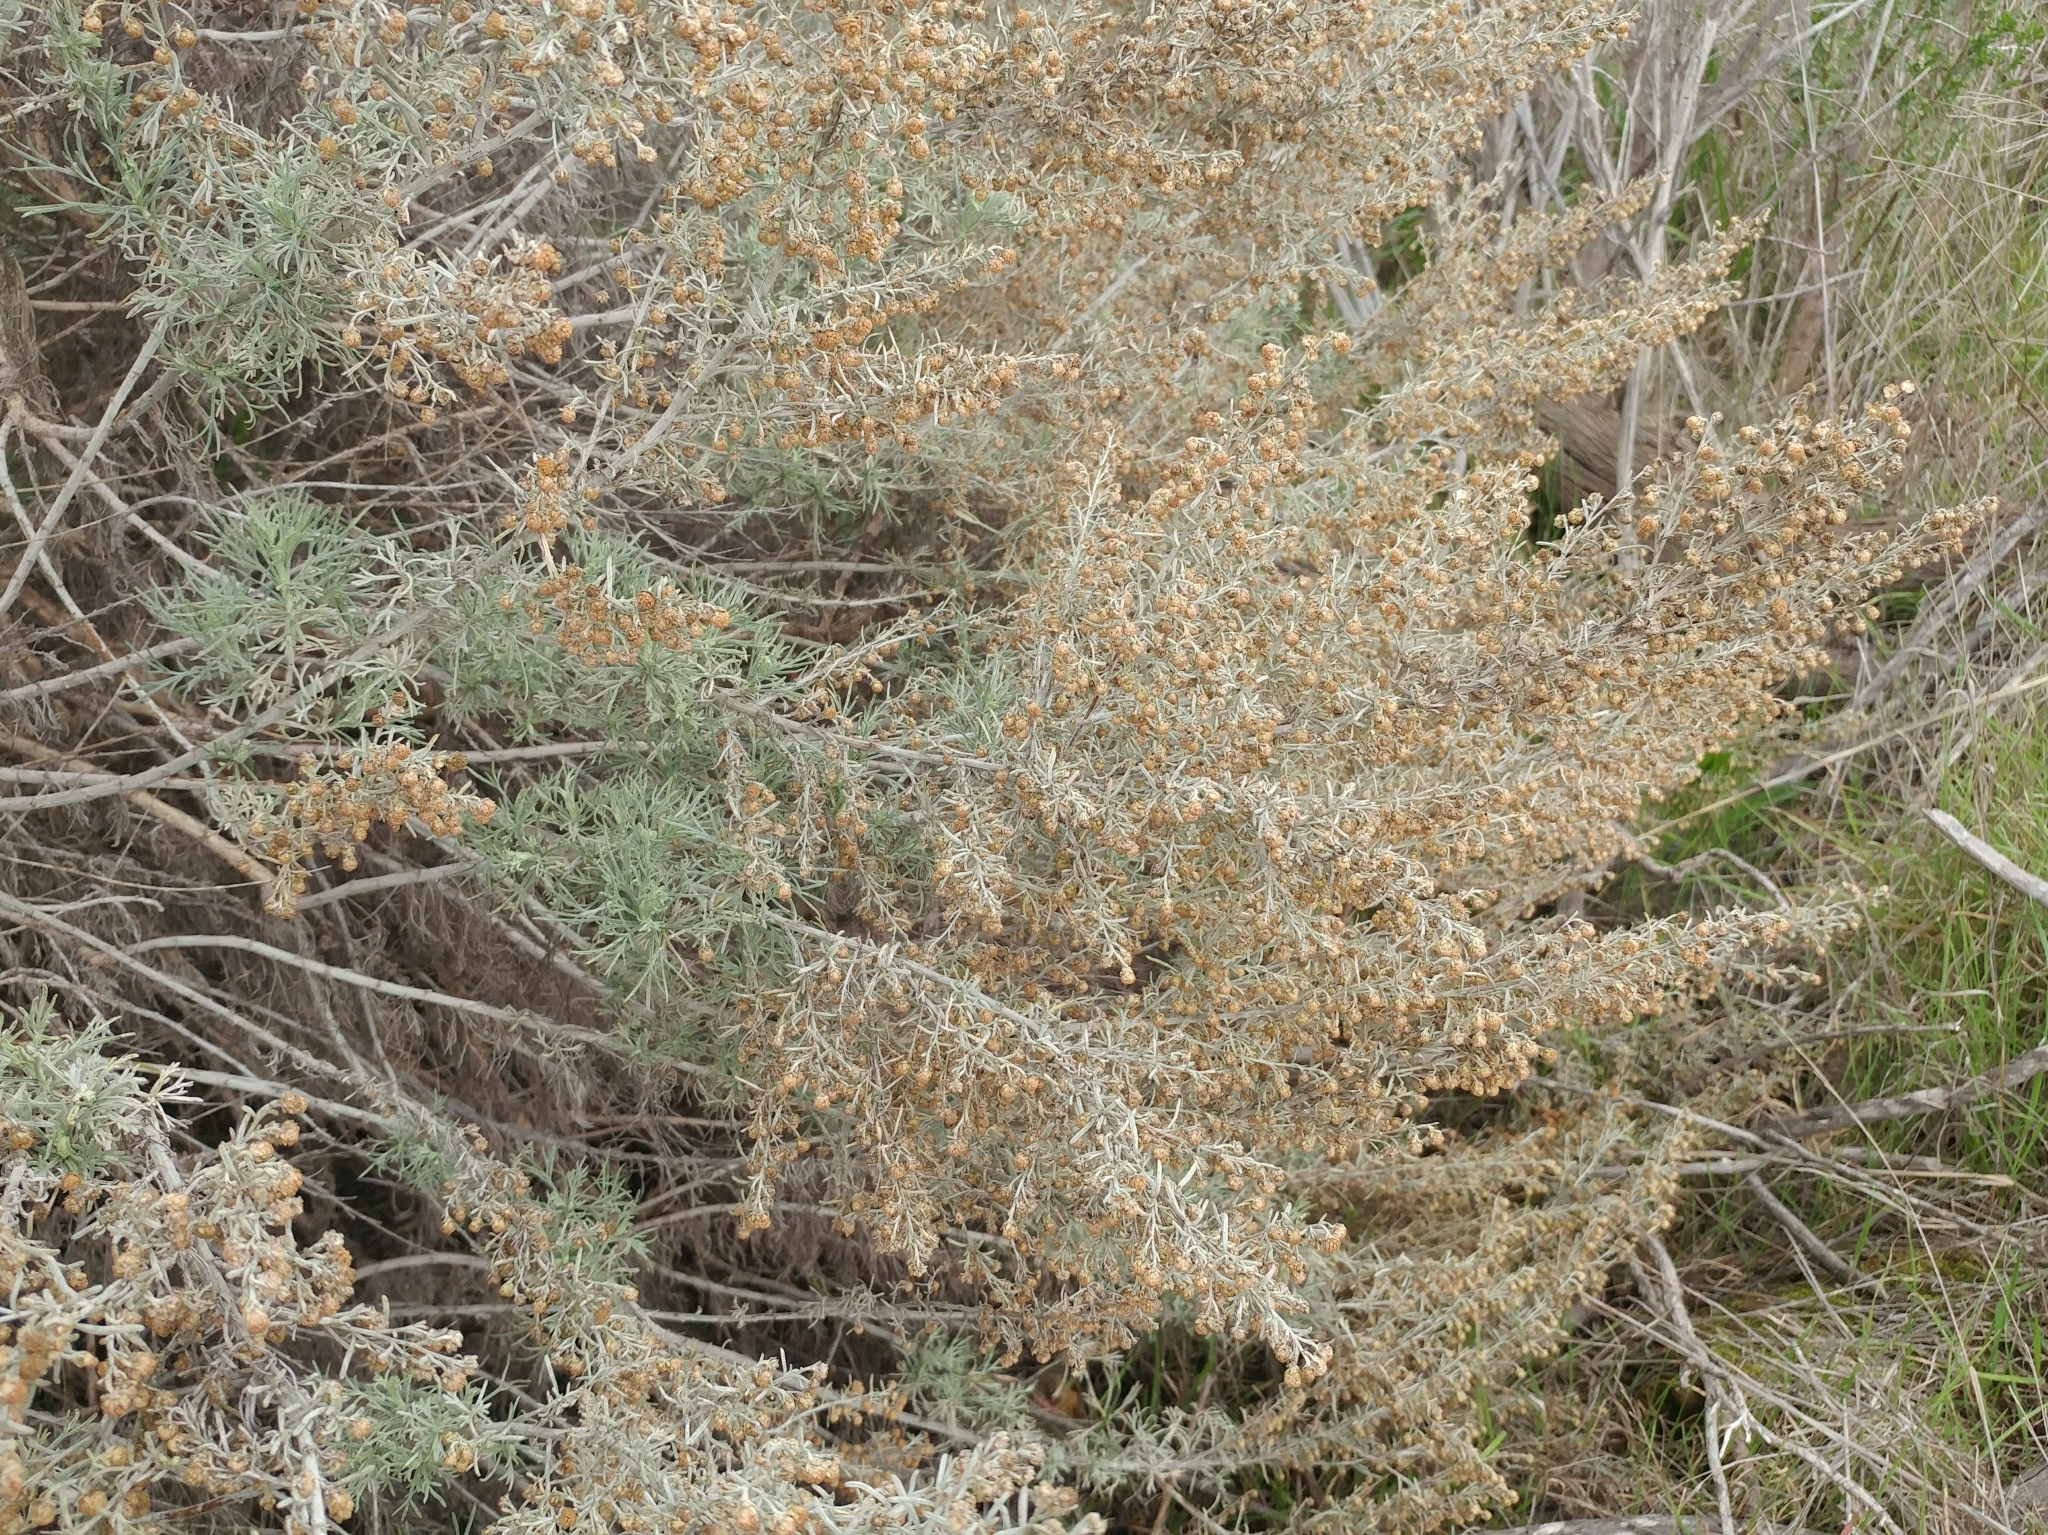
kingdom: Plantae
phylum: Tracheophyta
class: Magnoliopsida
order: Asterales
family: Asteraceae
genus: Artemisia
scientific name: Artemisia californica
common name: California sagebrush
